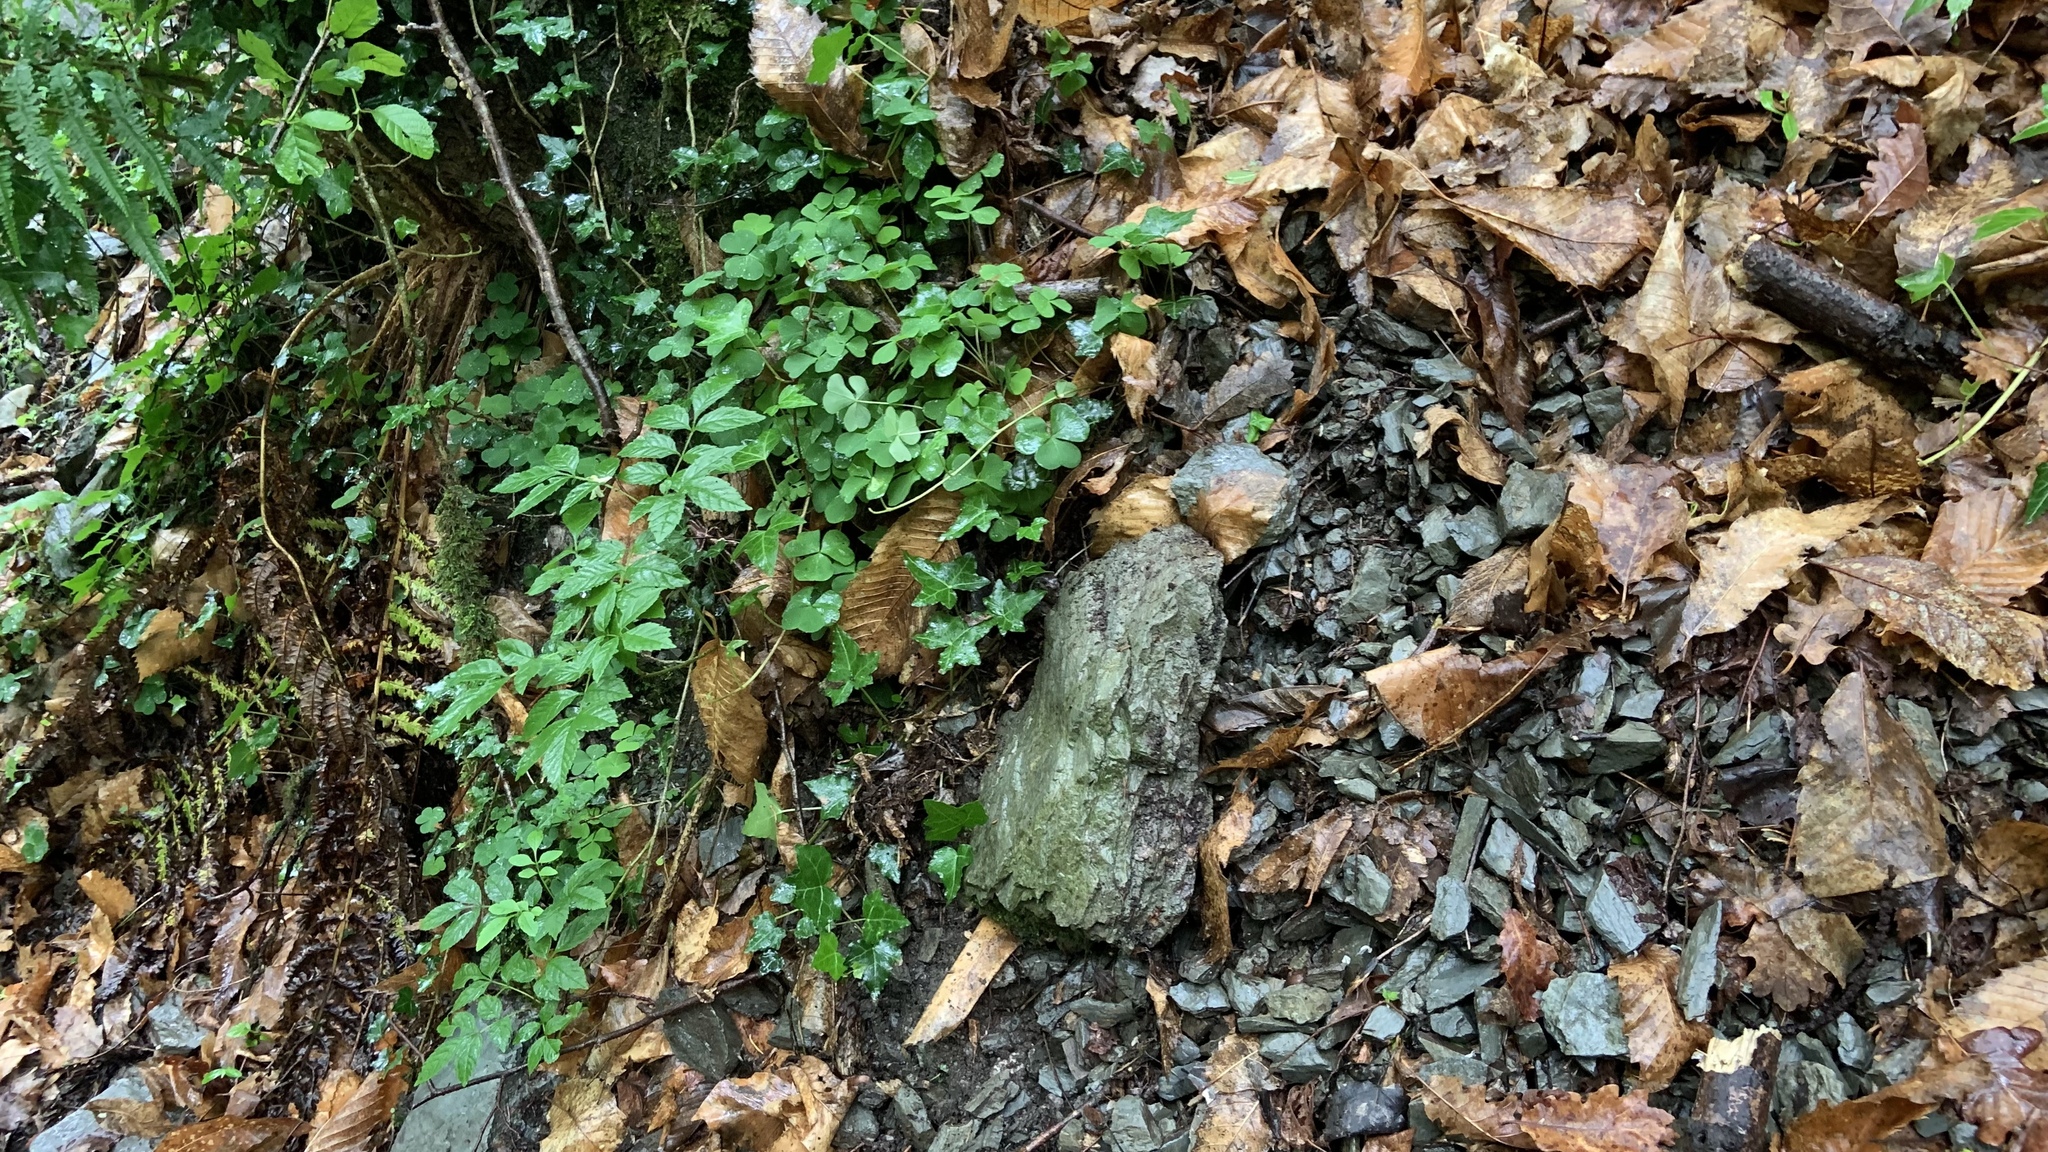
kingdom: Animalia
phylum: Arthropoda
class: Arachnida
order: Opiliones
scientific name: Opiliones
